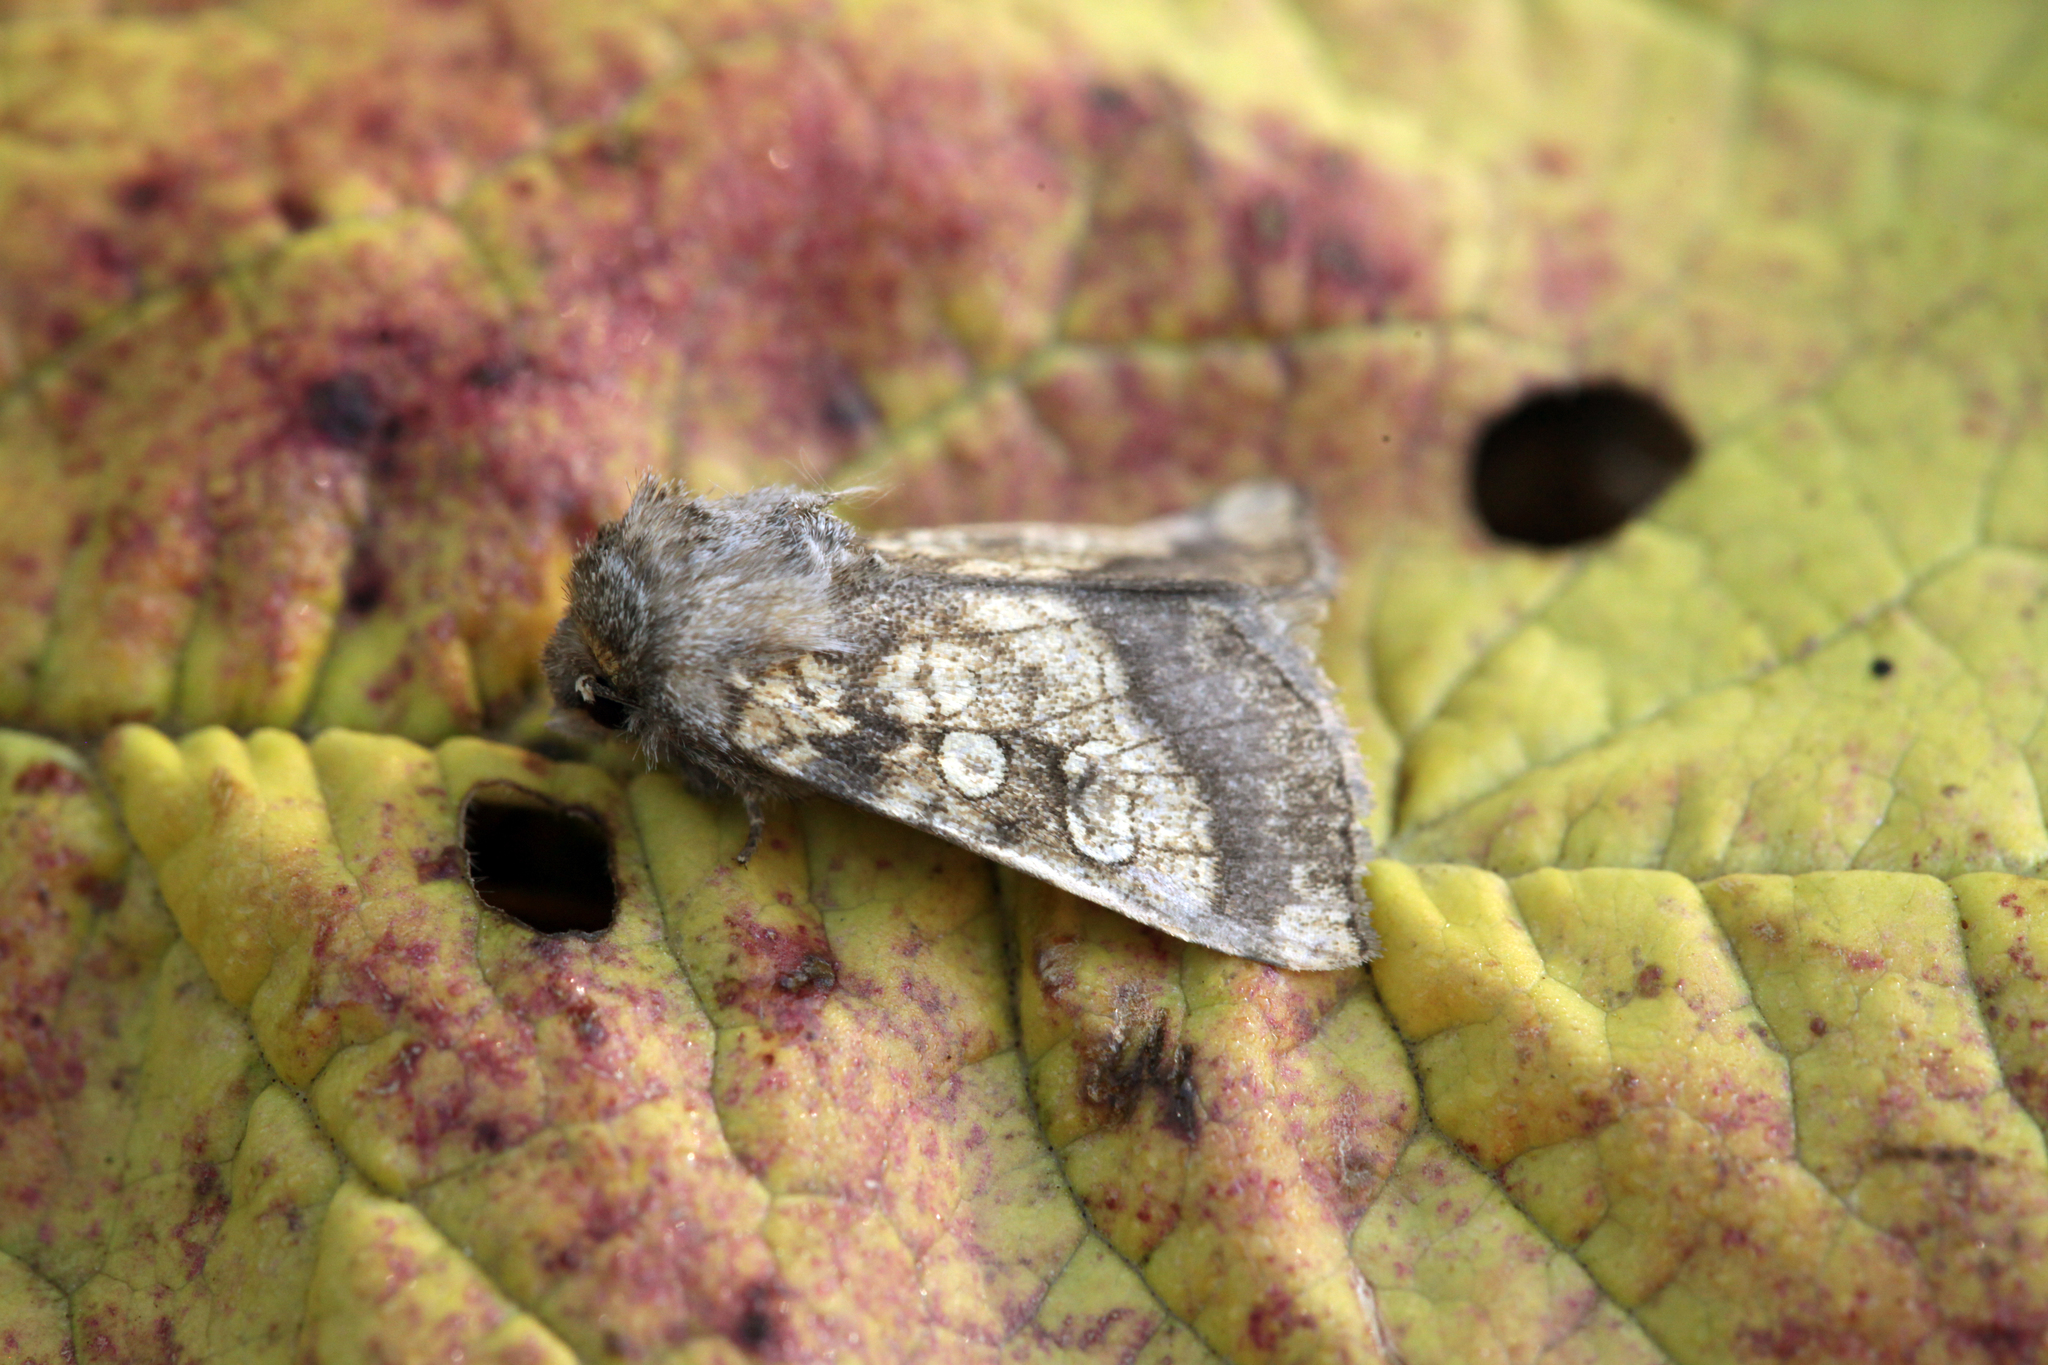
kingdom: Animalia
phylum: Arthropoda
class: Insecta
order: Lepidoptera
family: Noctuidae
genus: Gortyna
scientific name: Gortyna flavago
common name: Frosted orange
